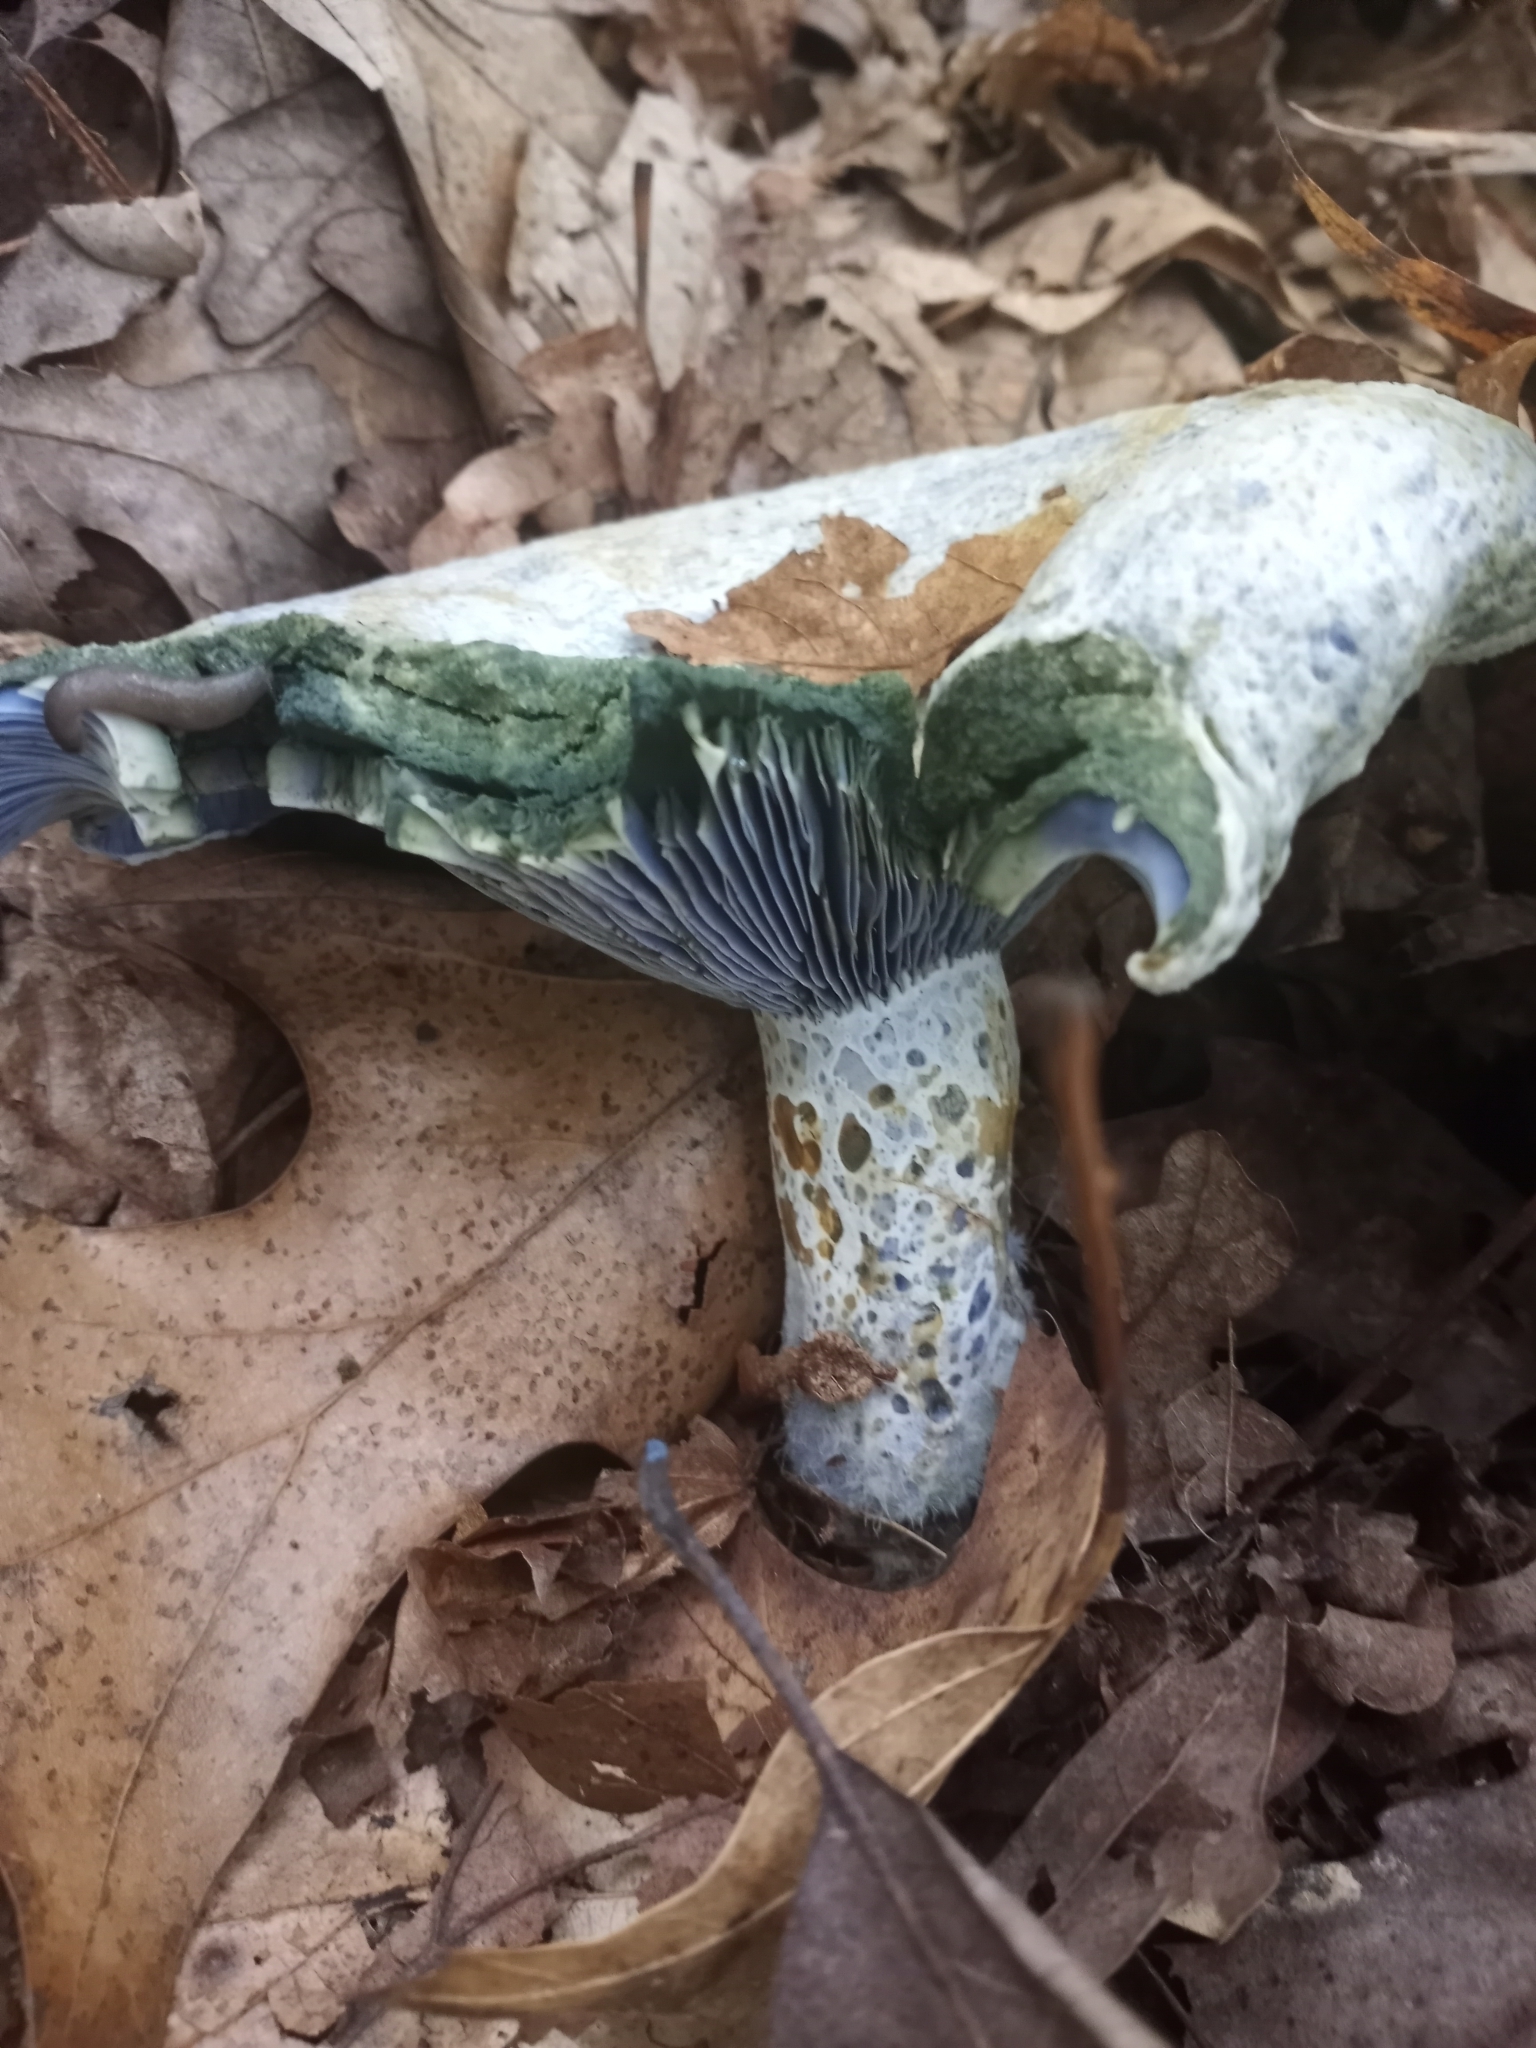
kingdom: Fungi
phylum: Basidiomycota
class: Agaricomycetes
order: Russulales
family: Russulaceae
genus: Lactarius
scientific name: Lactarius indigo
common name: Indigo milk cap
